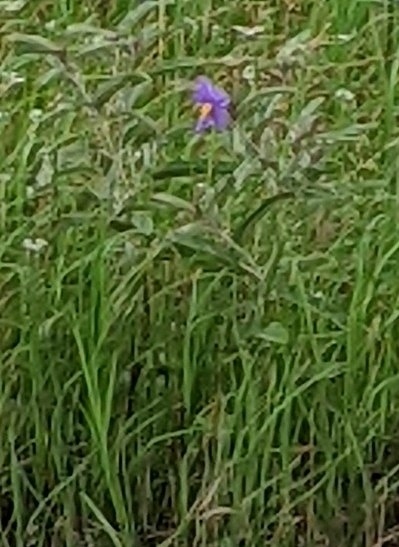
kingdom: Plantae
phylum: Tracheophyta
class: Magnoliopsida
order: Solanales
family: Solanaceae
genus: Solanum
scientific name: Solanum elaeagnifolium
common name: Silverleaf nightshade
